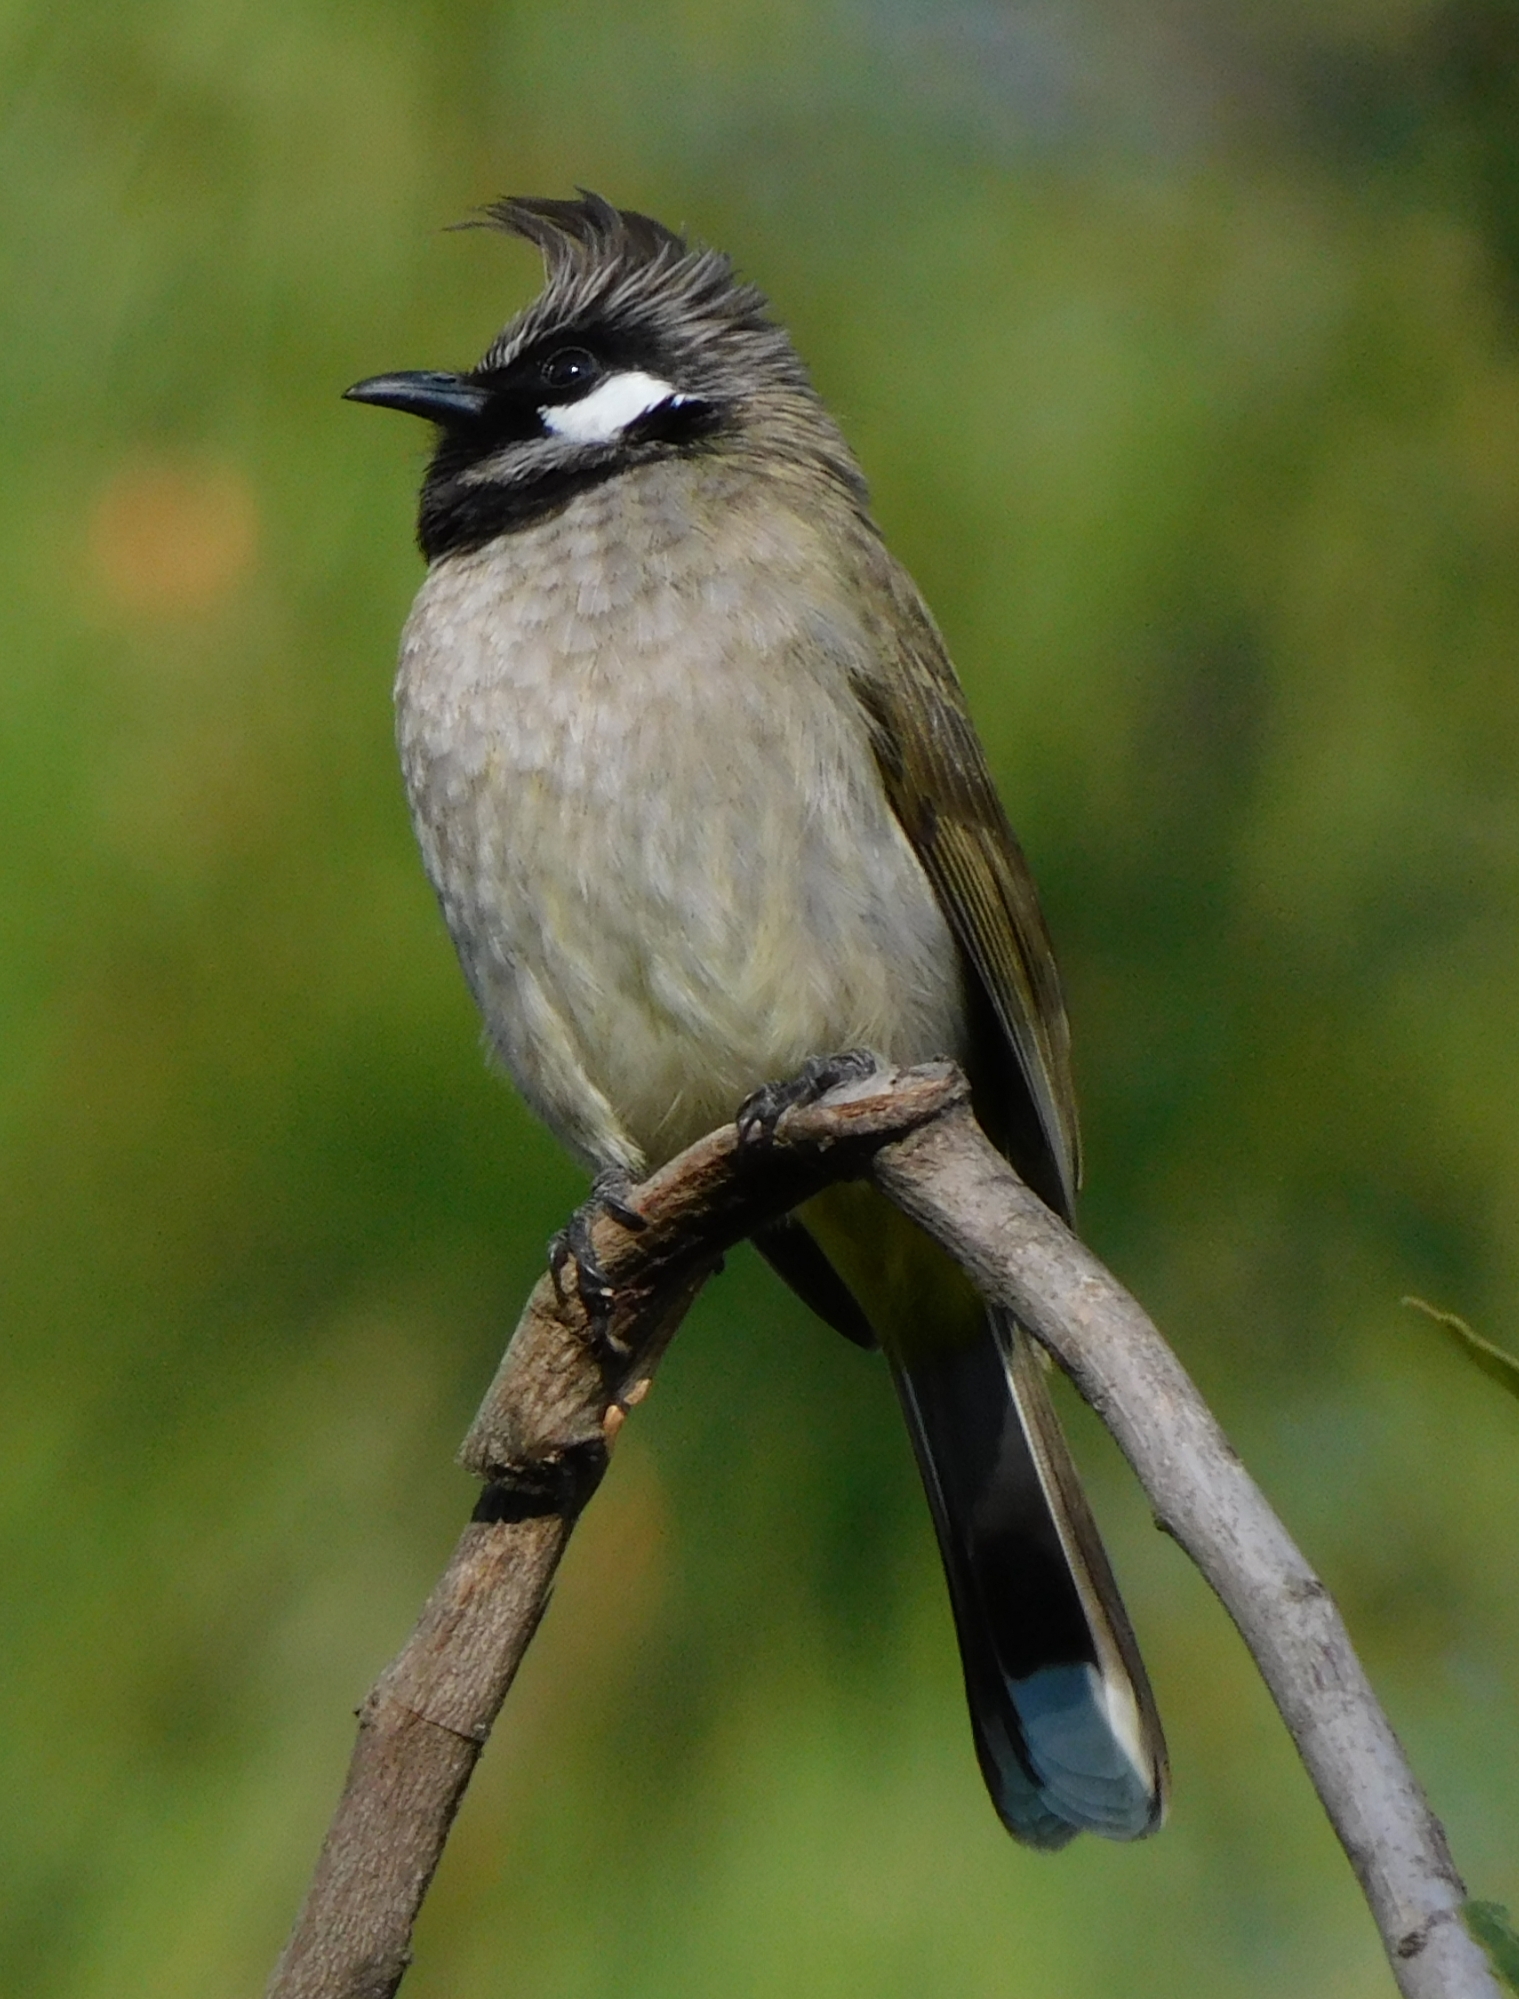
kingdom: Animalia
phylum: Chordata
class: Aves
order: Passeriformes
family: Pycnonotidae
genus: Pycnonotus
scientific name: Pycnonotus leucogenys
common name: Himalayan bulbul
